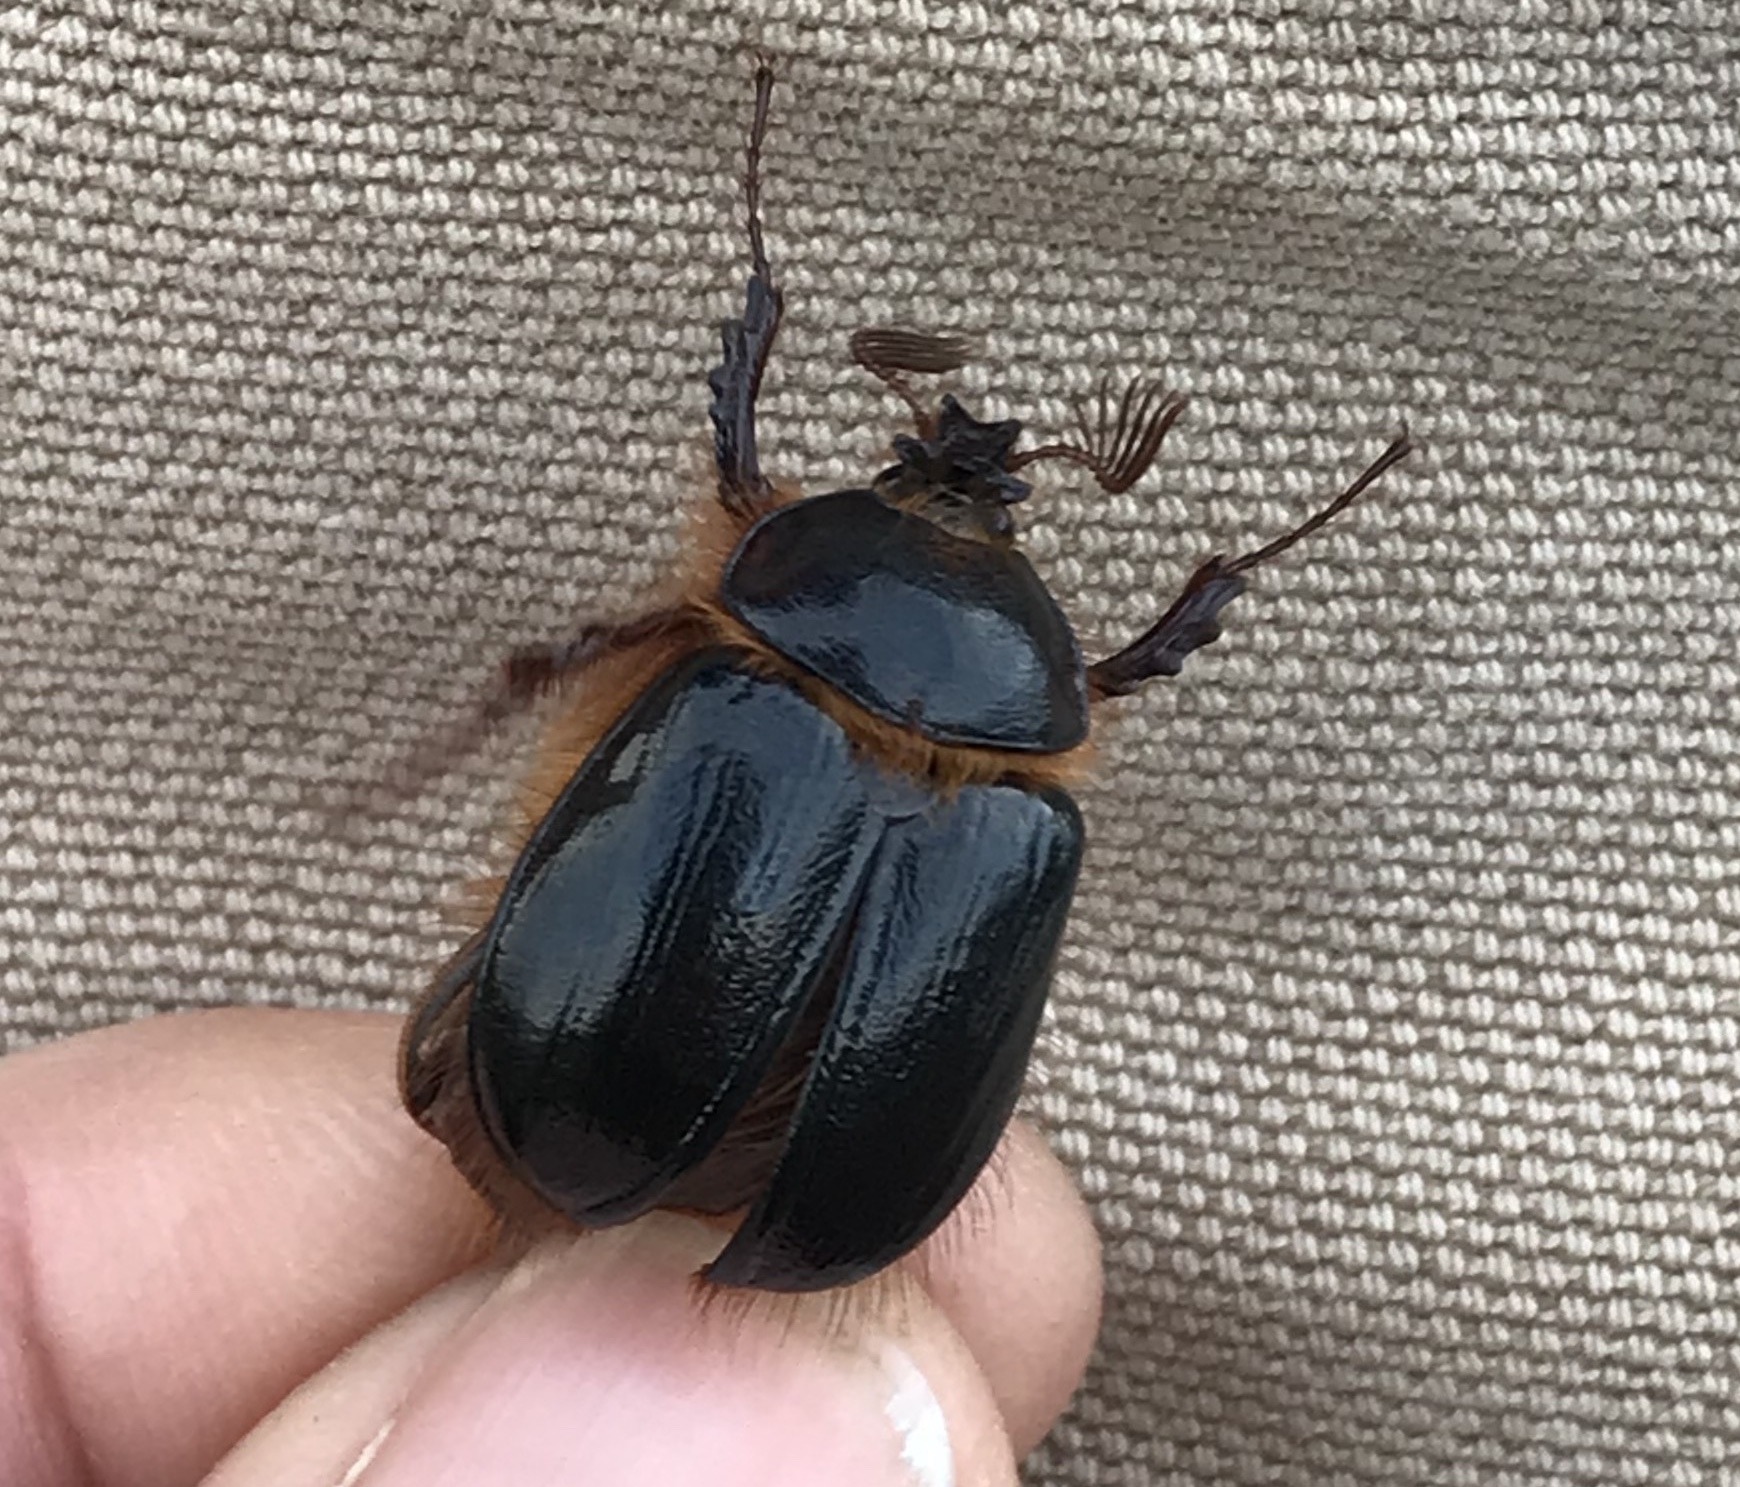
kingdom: Animalia
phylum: Arthropoda
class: Insecta
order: Coleoptera
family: Pleocomidae
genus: Pleocoma
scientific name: Pleocoma behrensi
